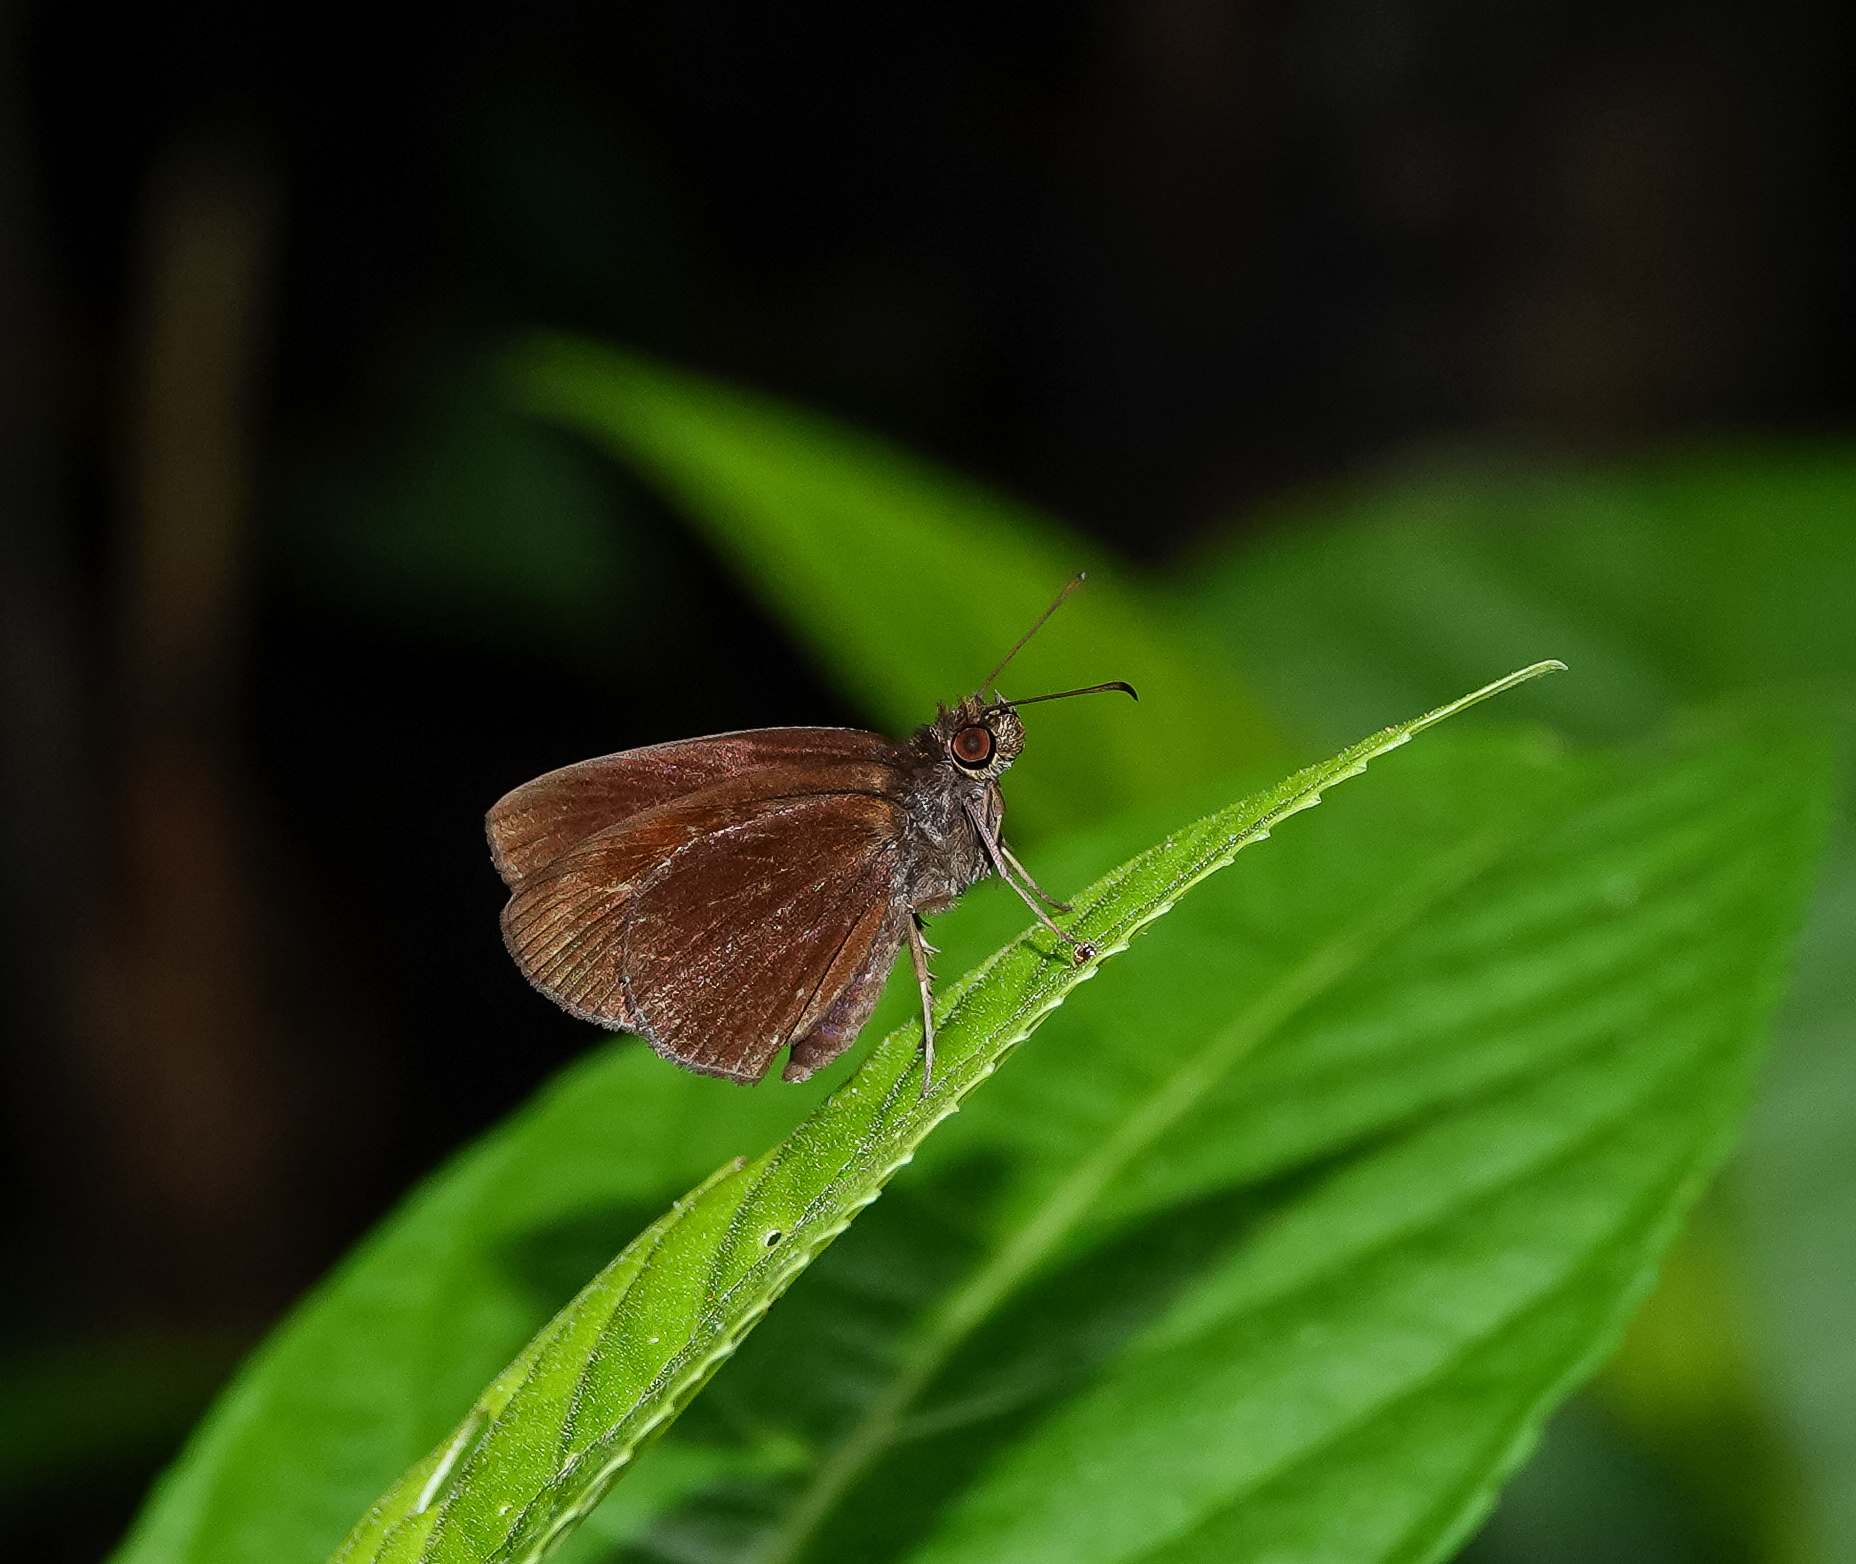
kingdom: Animalia
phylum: Arthropoda
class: Insecta
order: Lepidoptera
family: Hesperiidae
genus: Ancistroides
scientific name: Ancistroides nigrita
